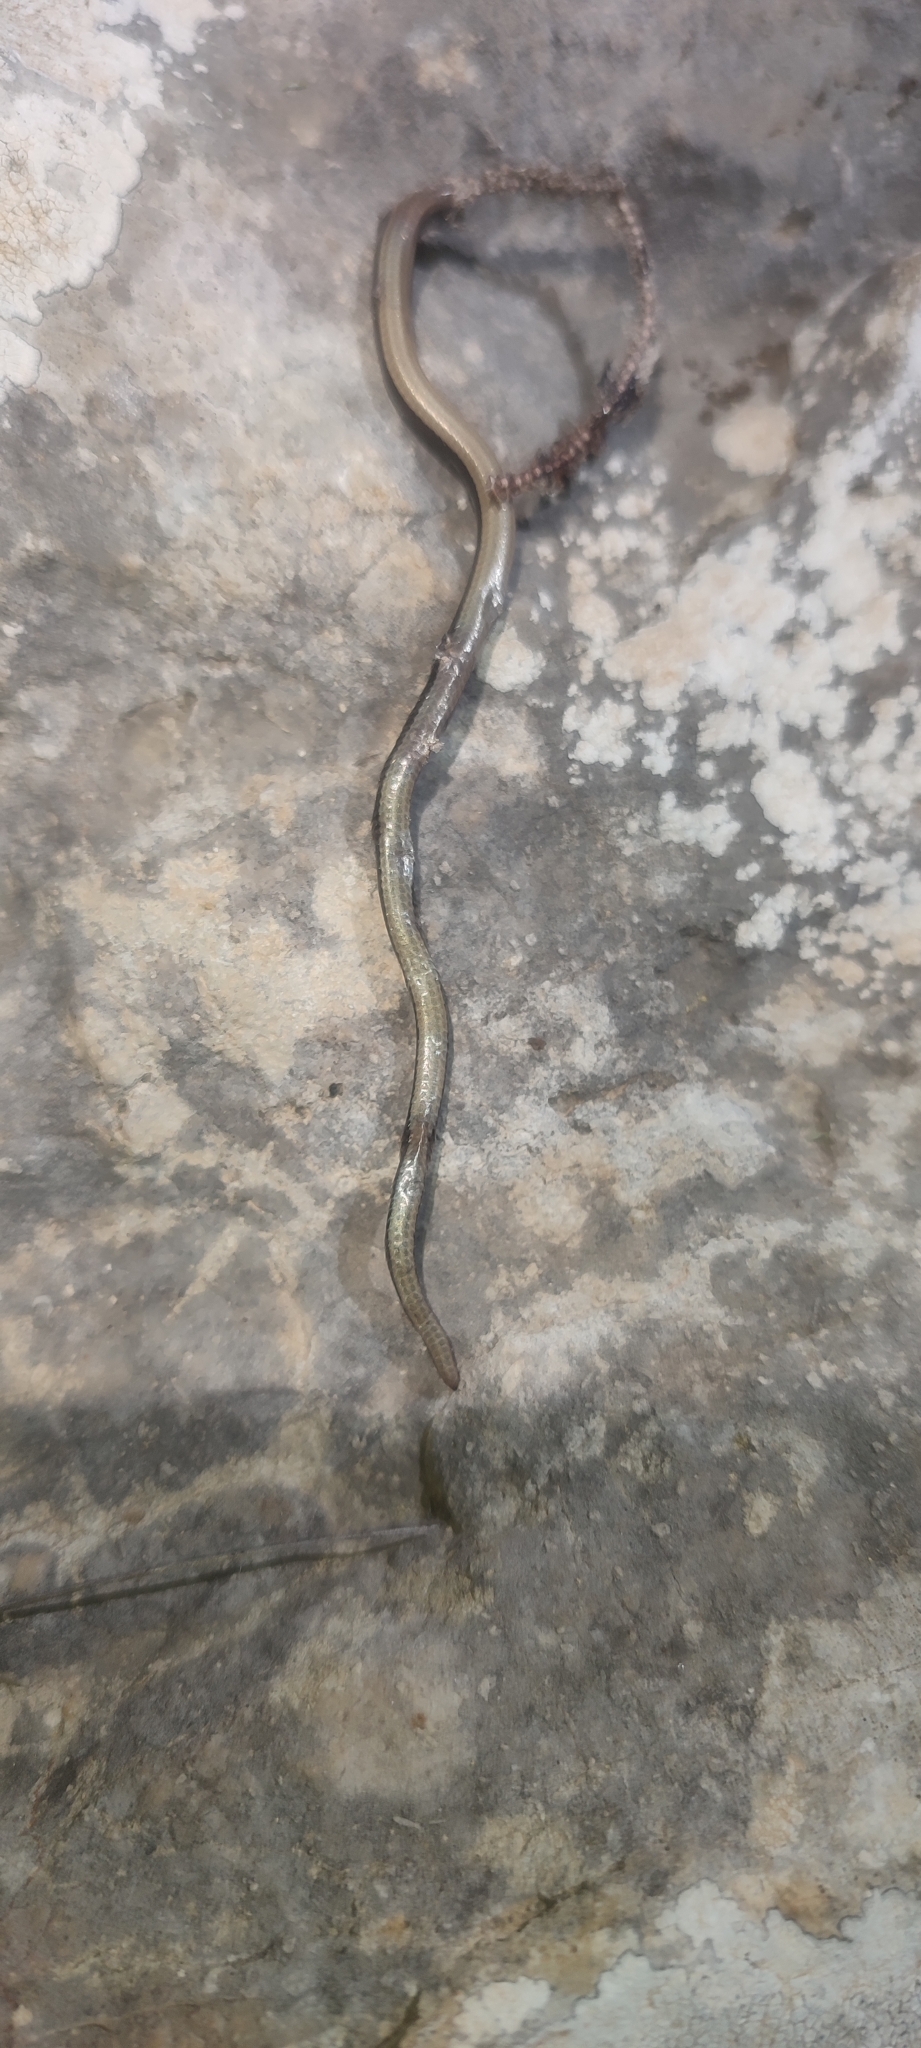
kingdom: Animalia
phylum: Chordata
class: Squamata
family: Anguidae
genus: Anguis
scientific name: Anguis veronensis
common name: Italian slow worm
